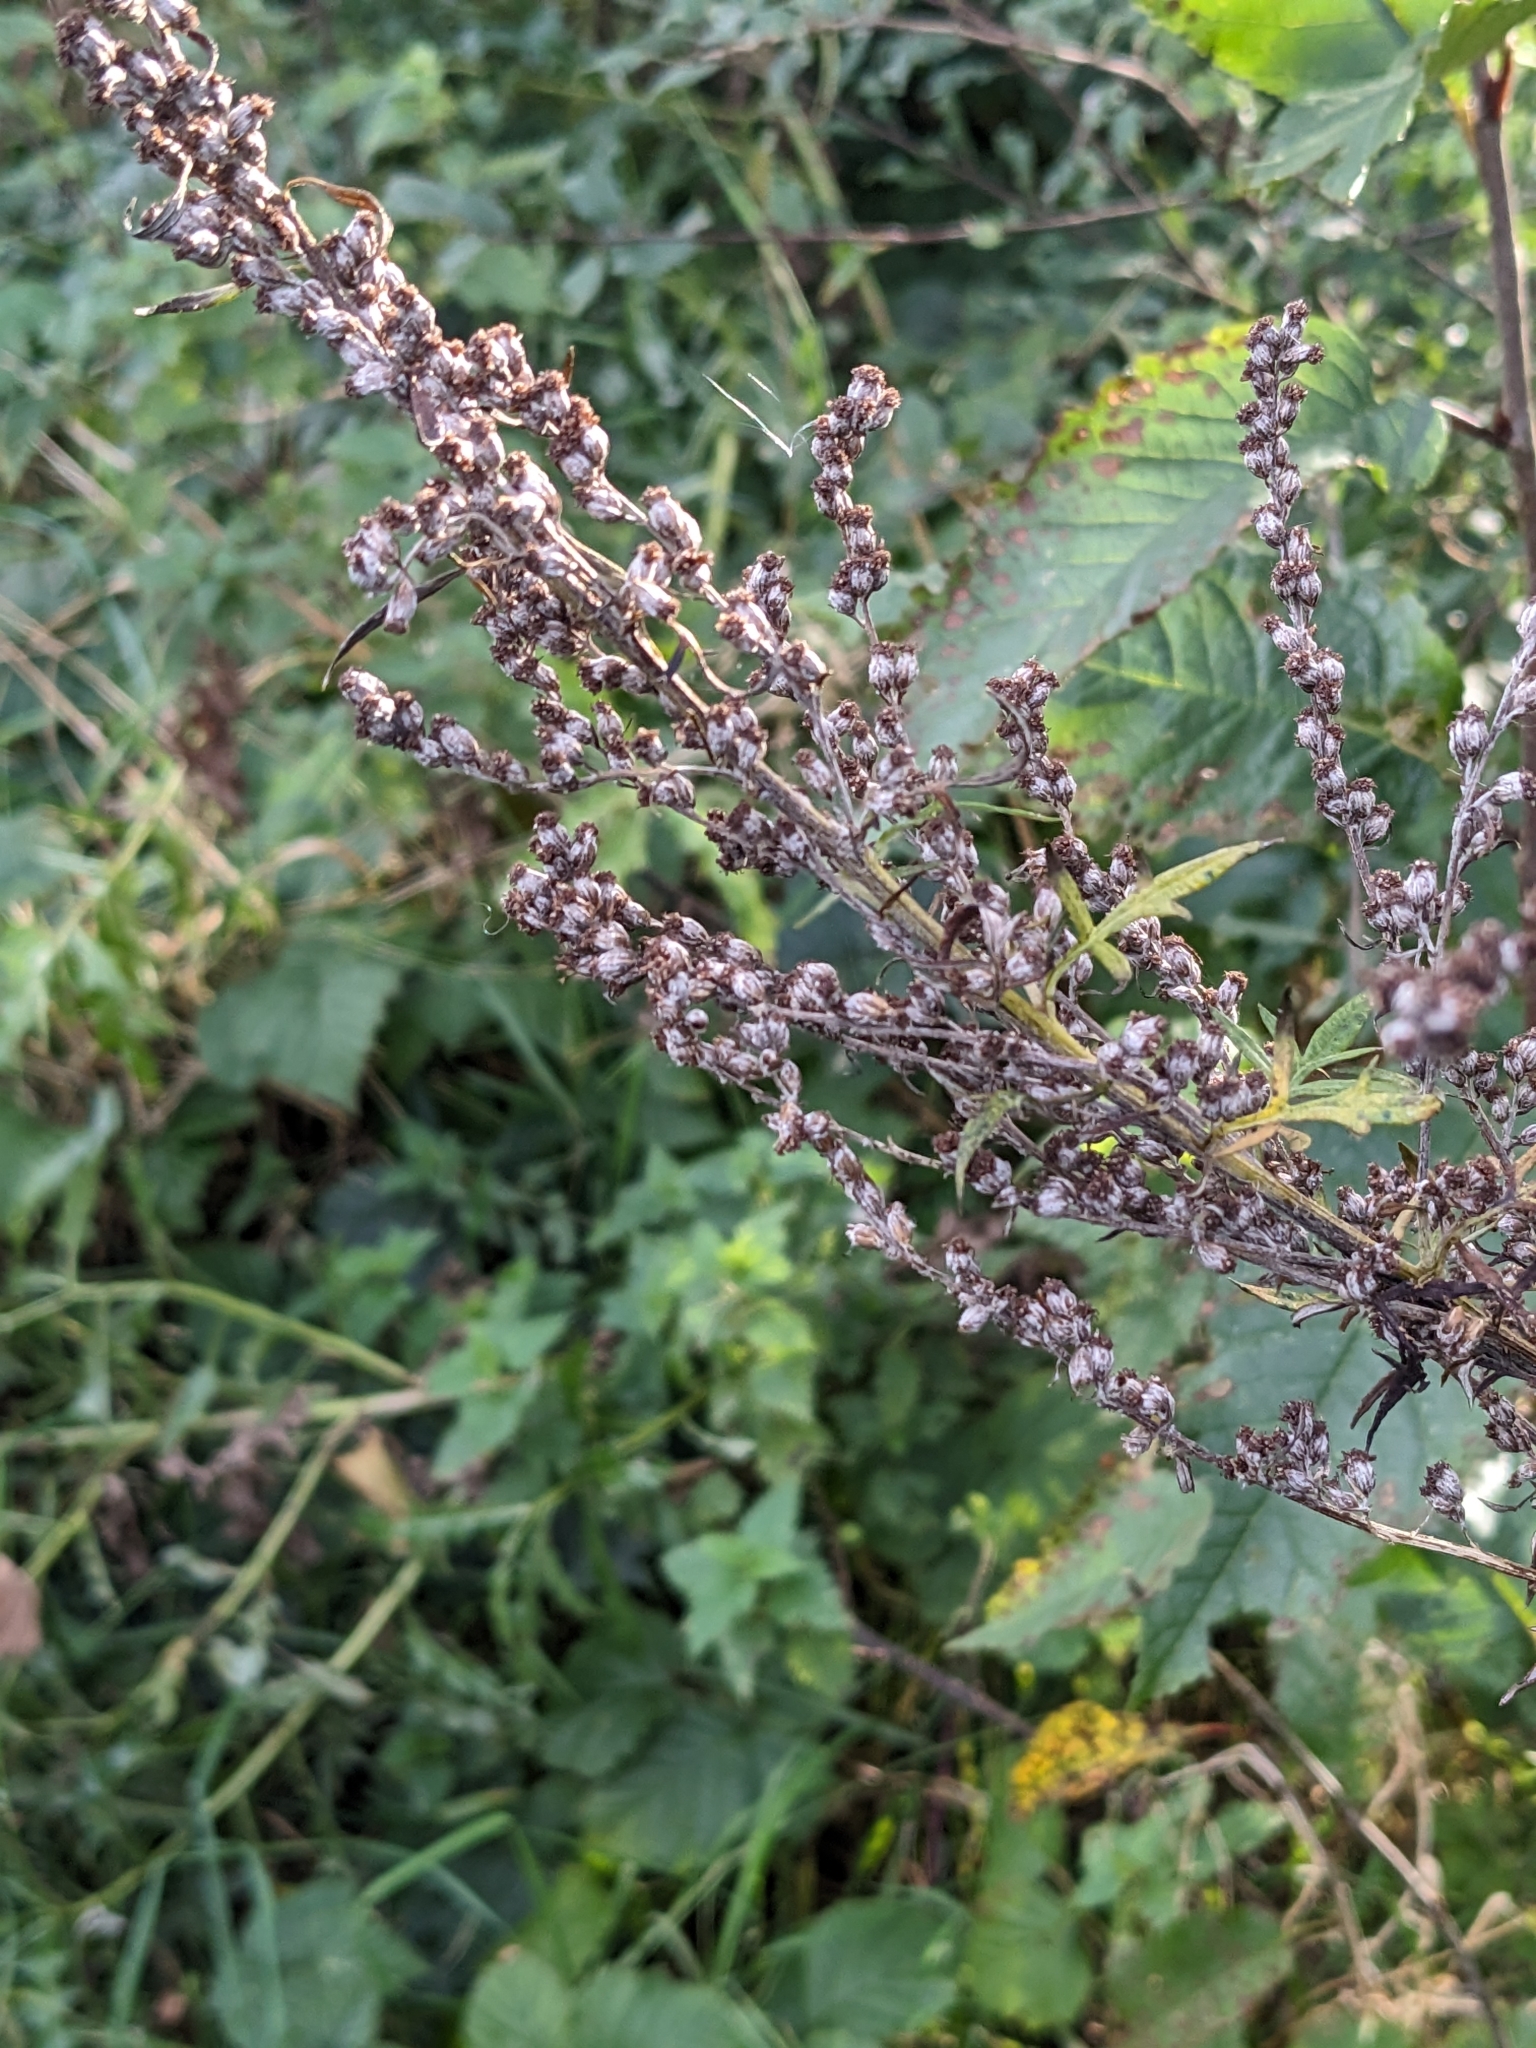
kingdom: Plantae
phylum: Tracheophyta
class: Magnoliopsida
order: Asterales
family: Asteraceae
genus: Artemisia
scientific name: Artemisia vulgaris
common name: Mugwort
